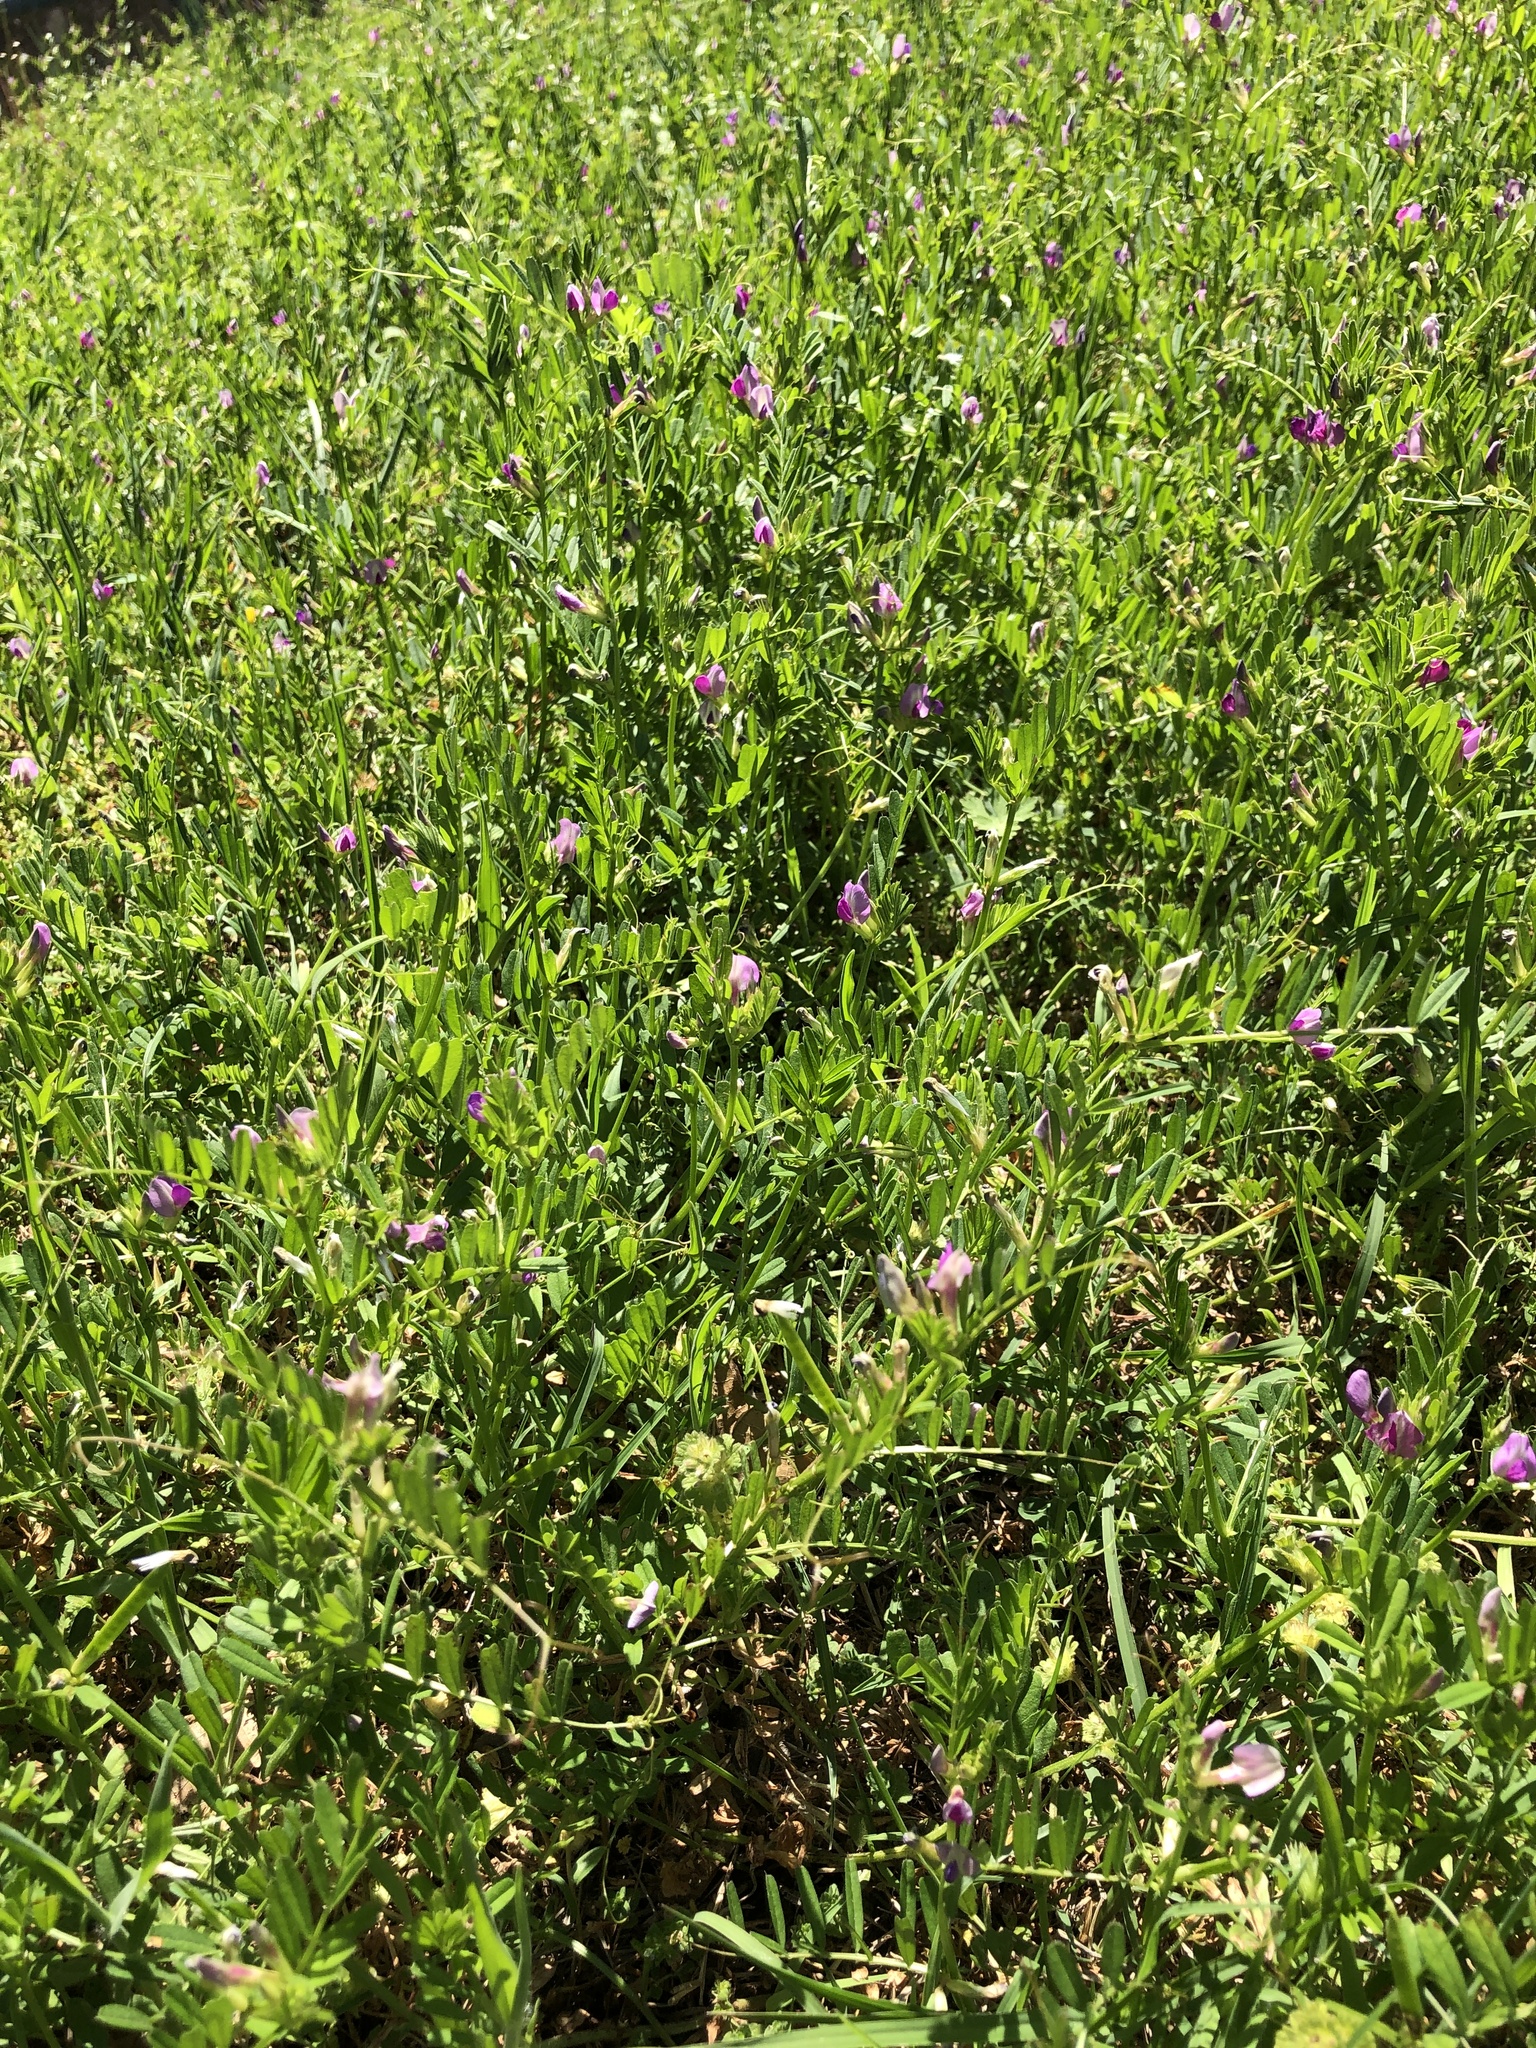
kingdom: Plantae
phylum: Tracheophyta
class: Magnoliopsida
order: Fabales
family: Fabaceae
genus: Vicia
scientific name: Vicia sativa
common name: Garden vetch
